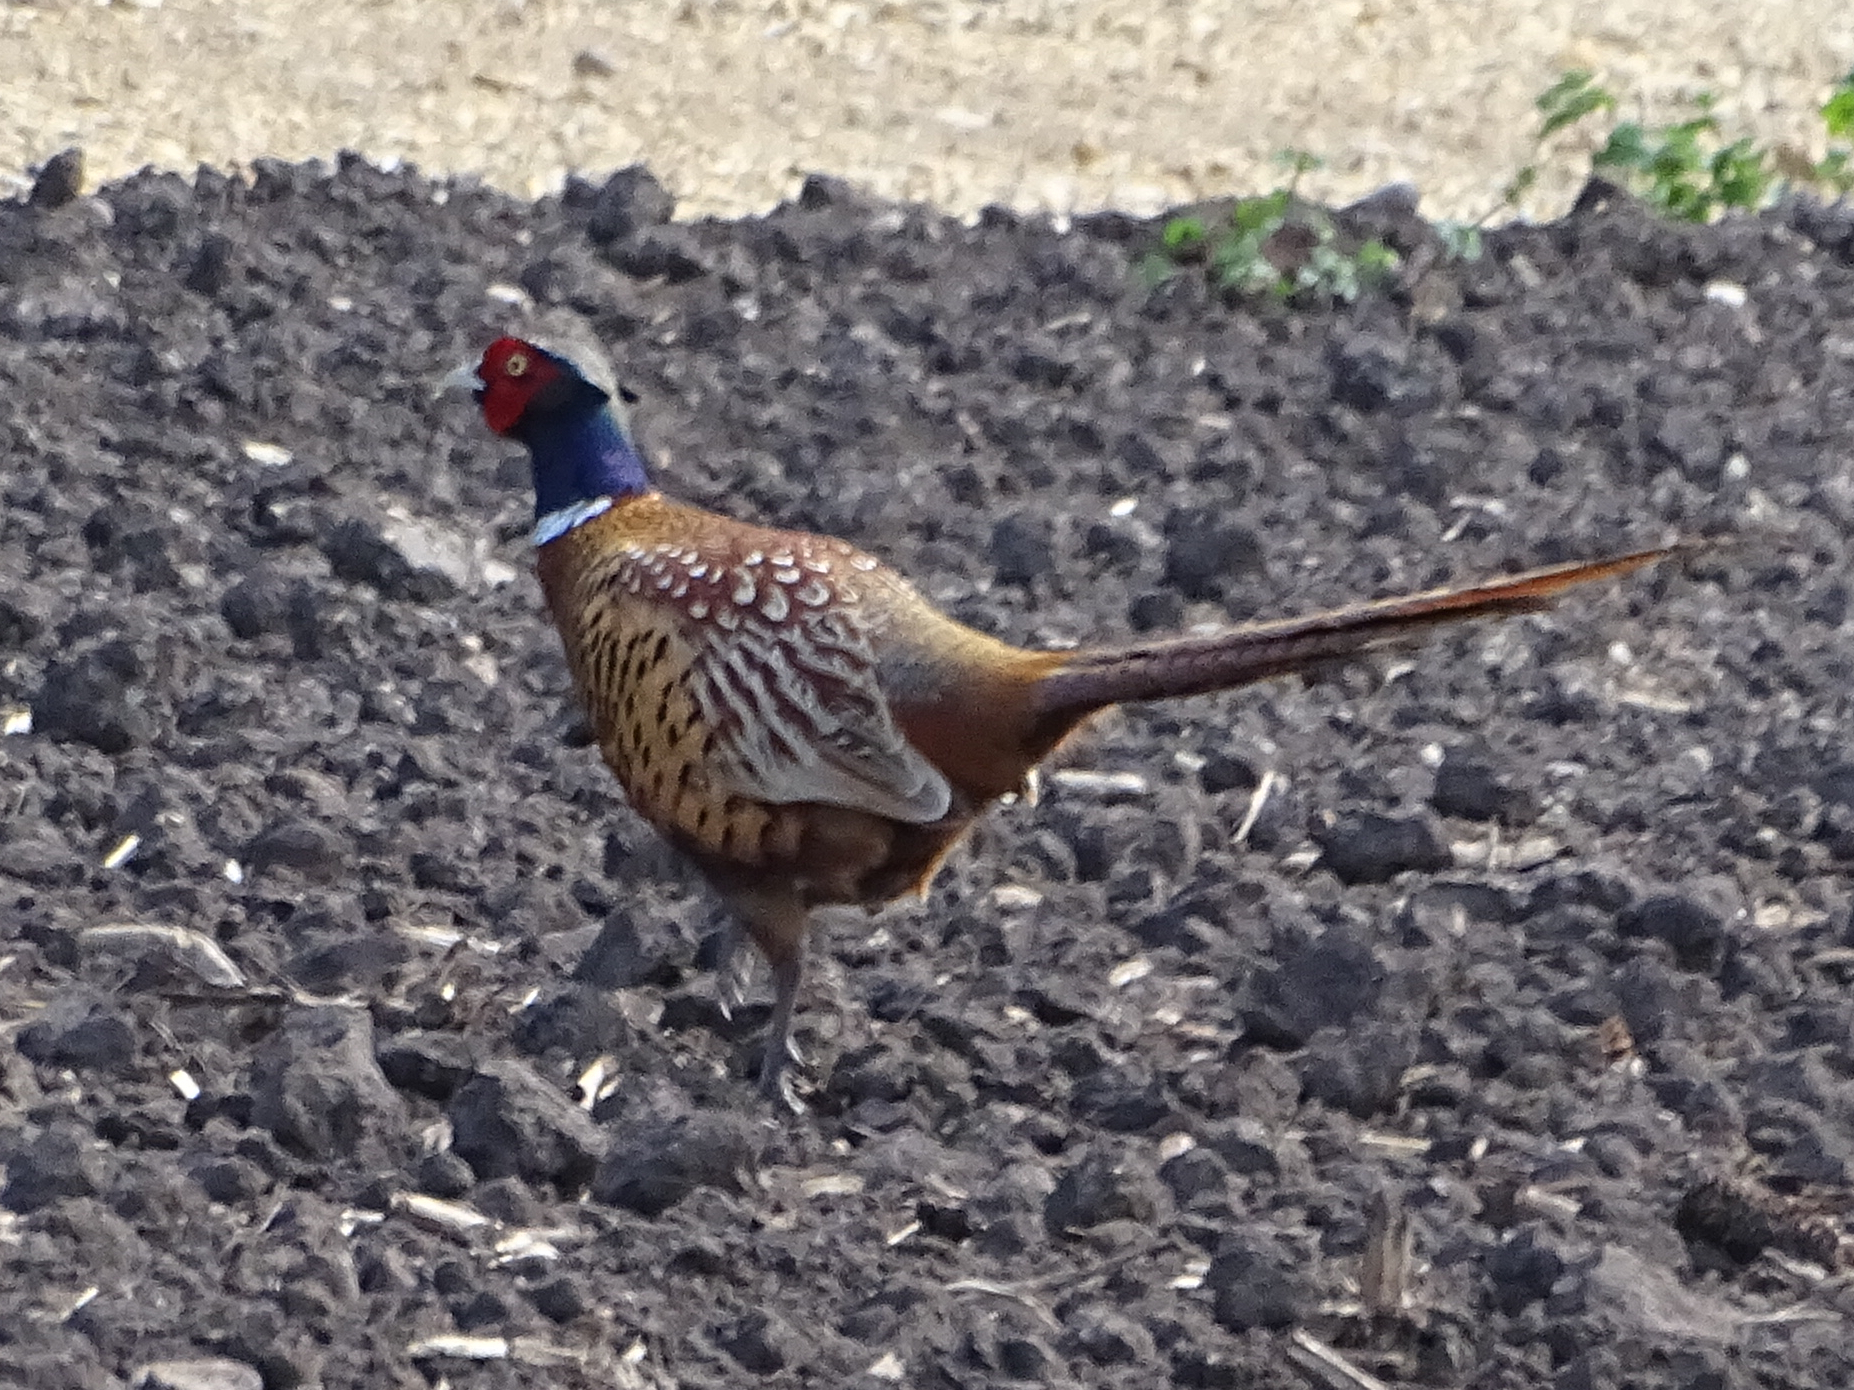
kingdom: Animalia
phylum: Chordata
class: Aves
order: Galliformes
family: Phasianidae
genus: Phasianus
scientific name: Phasianus colchicus
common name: Common pheasant
